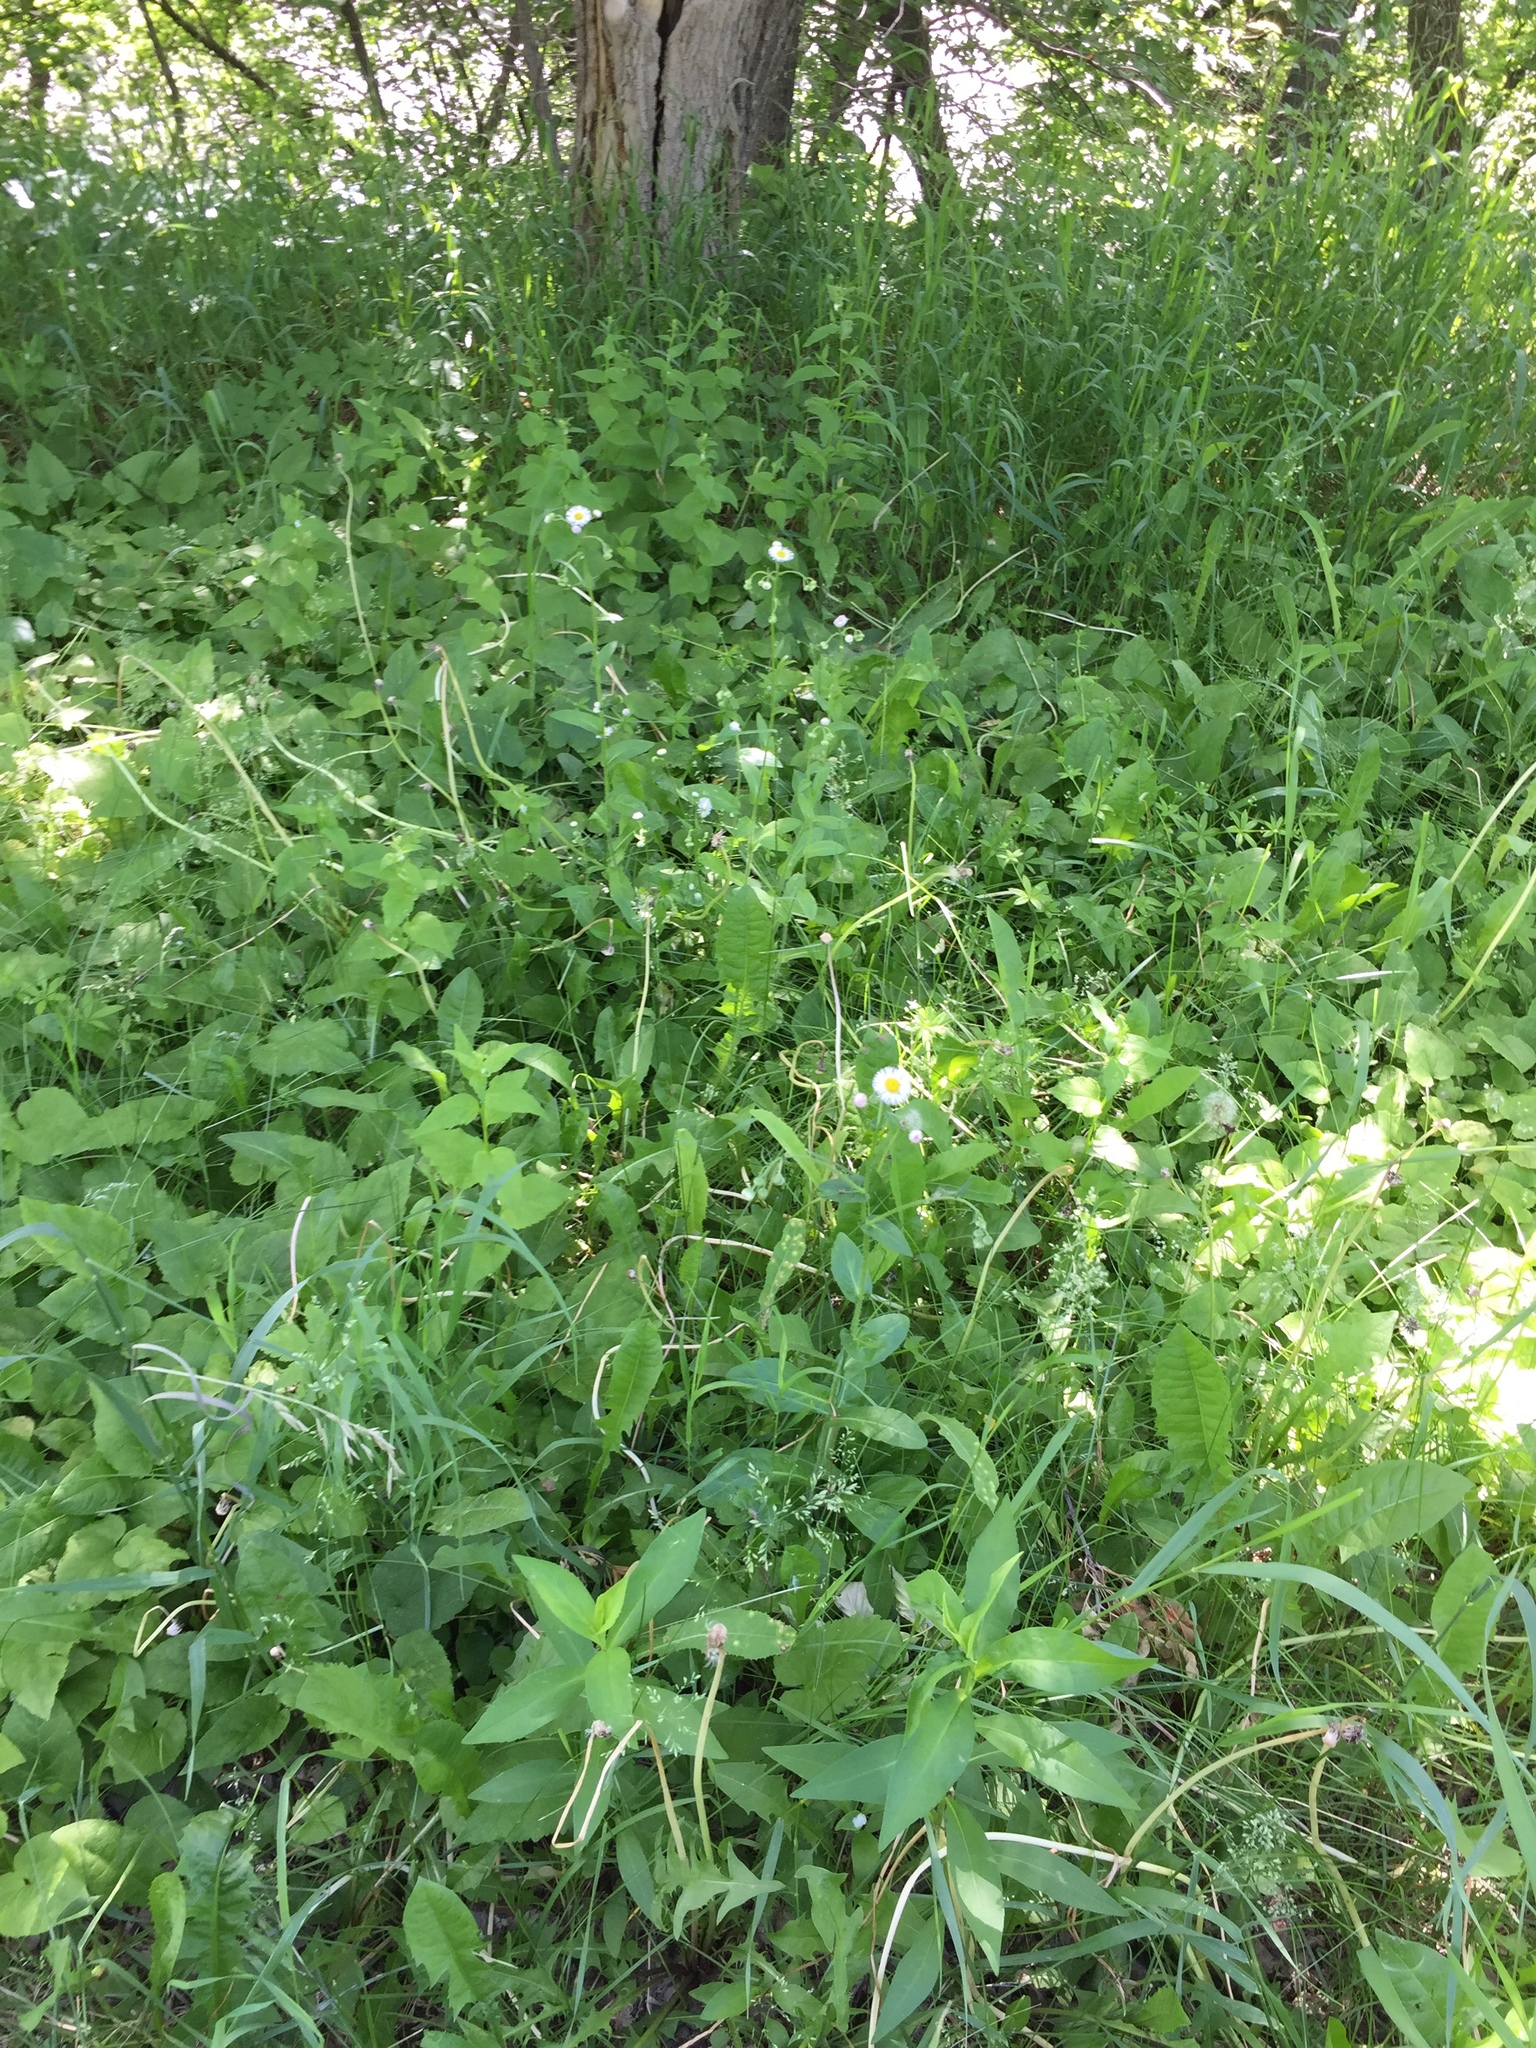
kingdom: Plantae
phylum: Tracheophyta
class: Magnoliopsida
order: Asterales
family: Asteraceae
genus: Erigeron
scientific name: Erigeron philadelphicus
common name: Robin's-plantain
